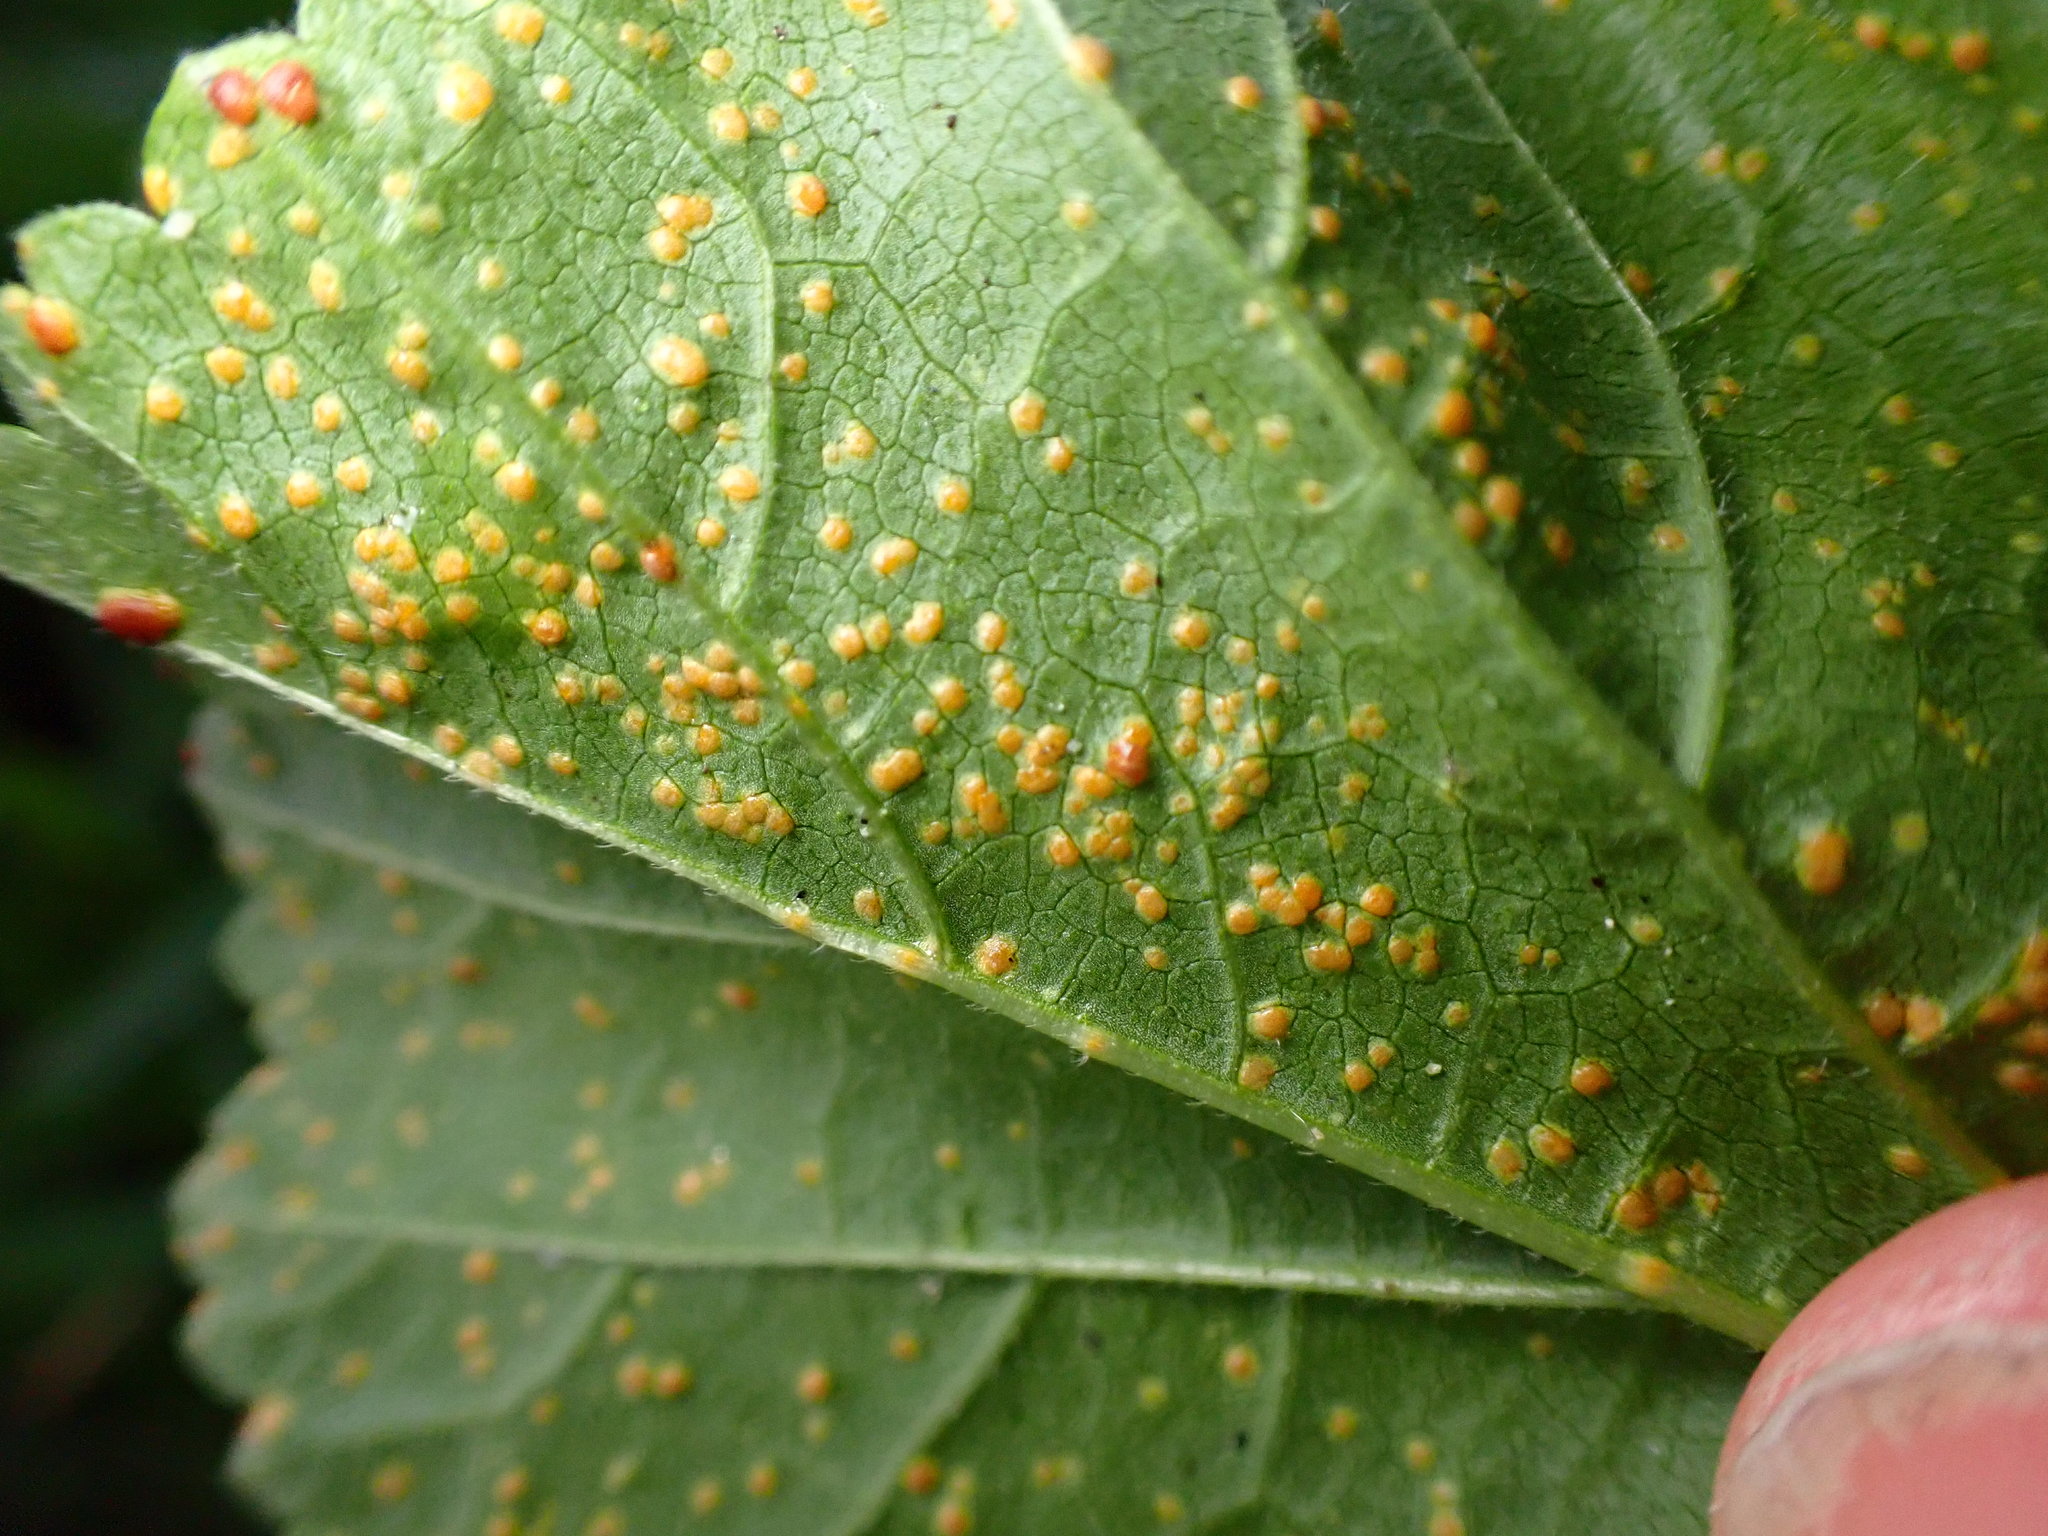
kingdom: Fungi
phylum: Basidiomycota
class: Pucciniomycetes
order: Pucciniales
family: Pucciniaceae
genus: Puccinia
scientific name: Puccinia malvacearum
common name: Hollyhock rust
